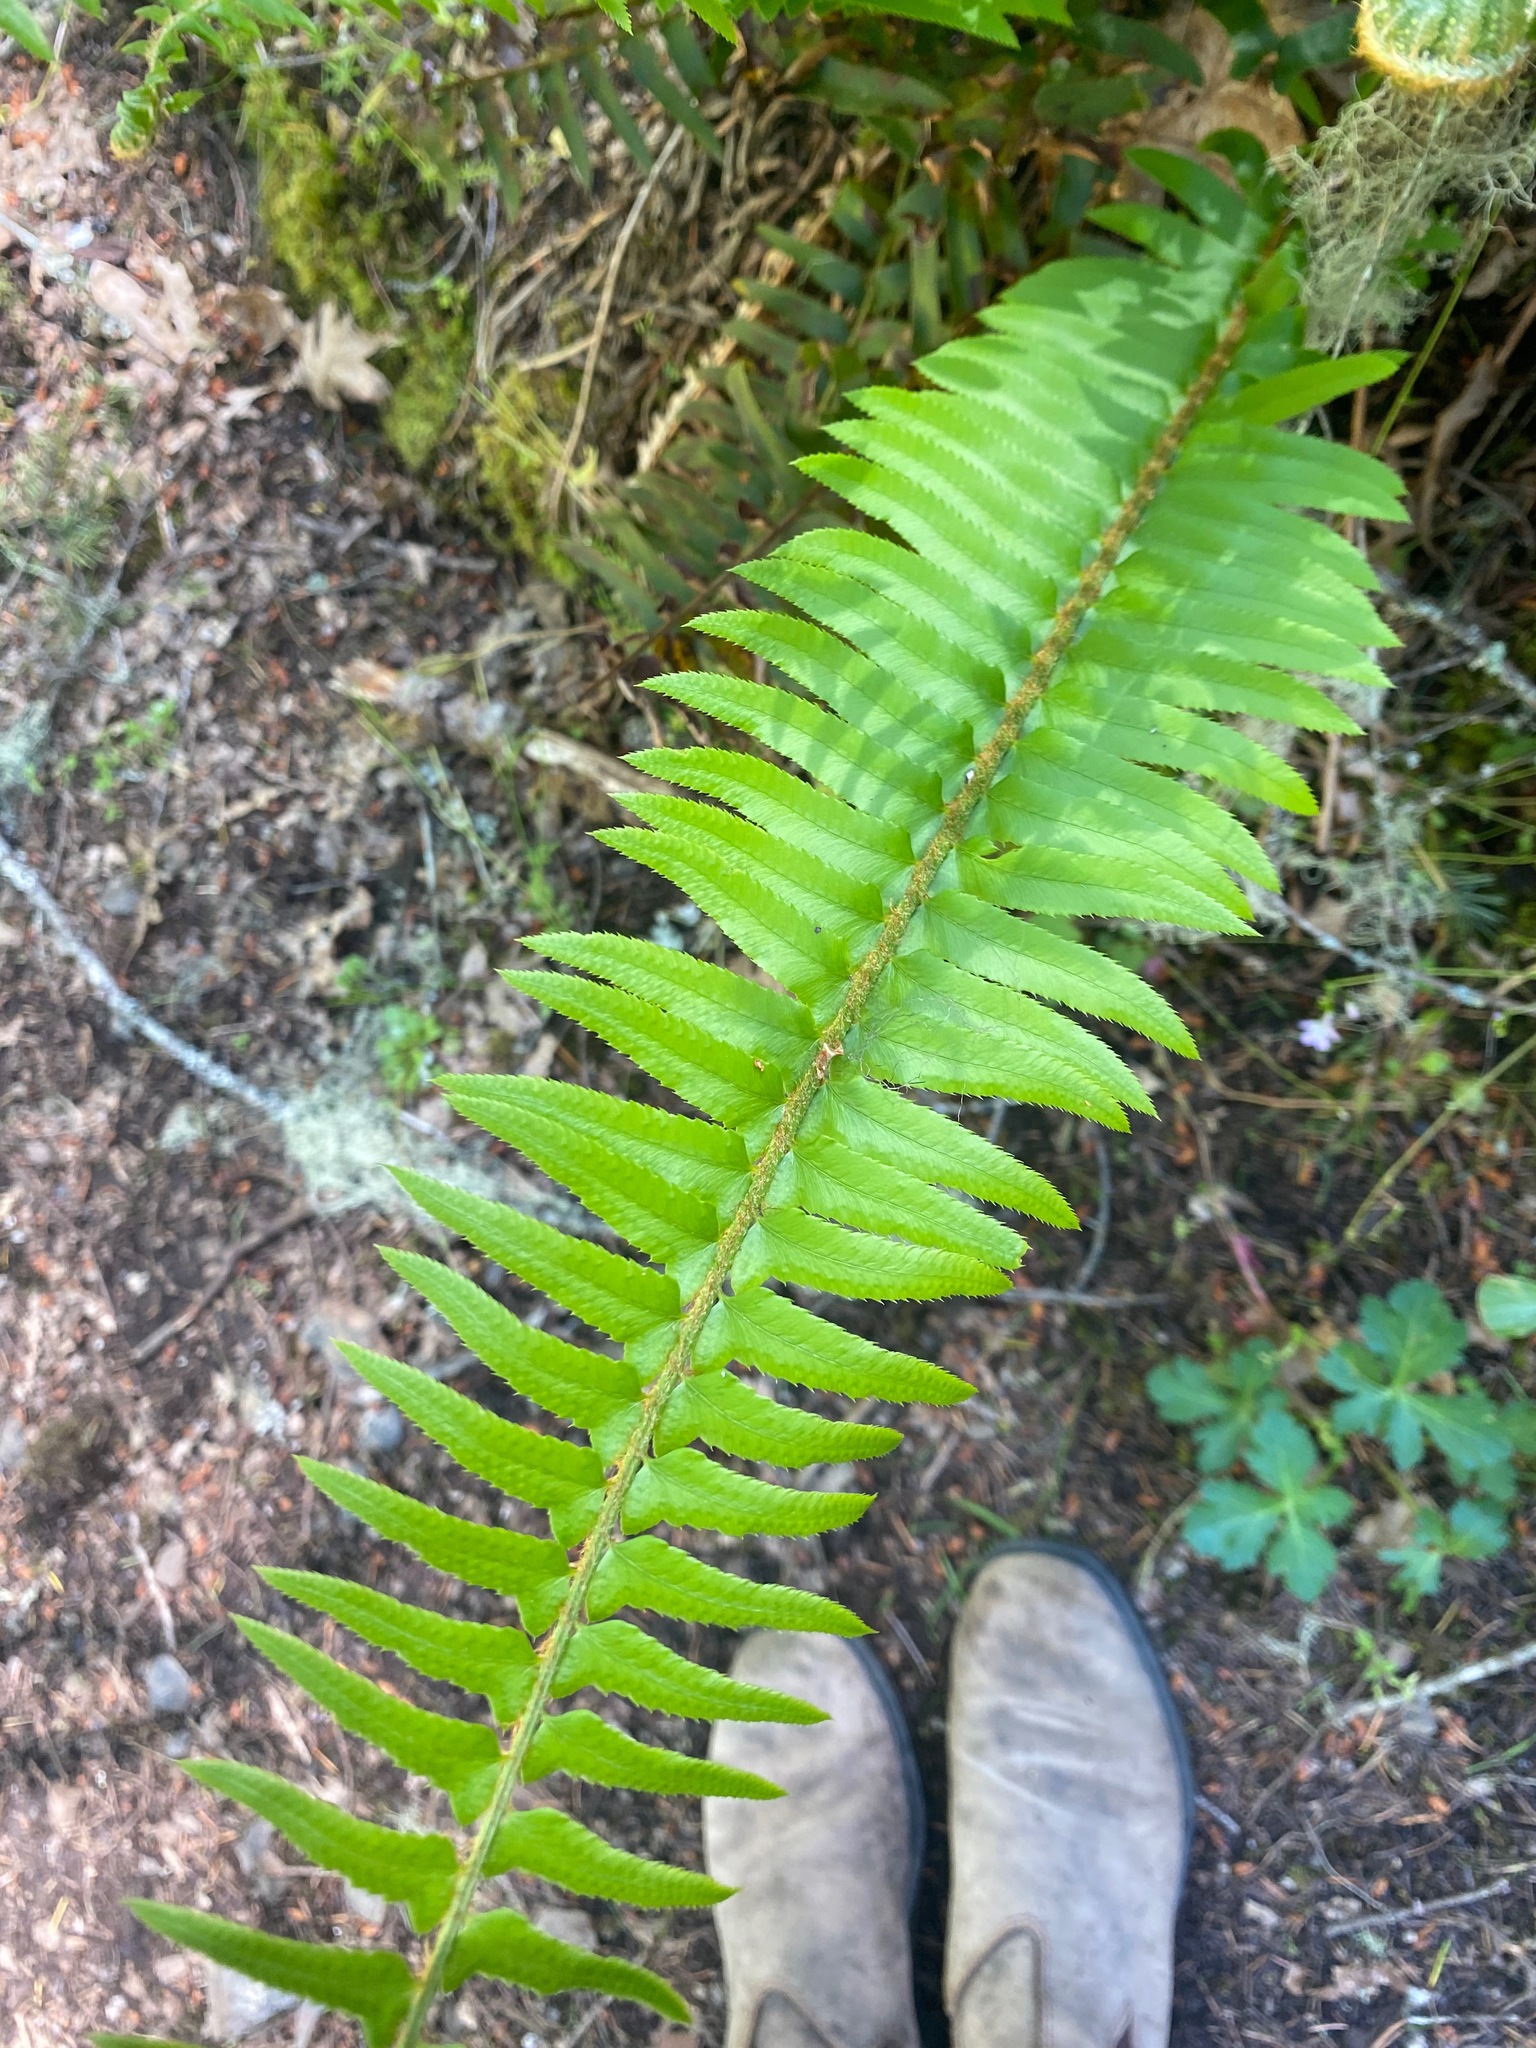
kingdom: Plantae
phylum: Tracheophyta
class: Polypodiopsida
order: Polypodiales
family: Dryopteridaceae
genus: Polystichum
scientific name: Polystichum munitum
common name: Western sword-fern
